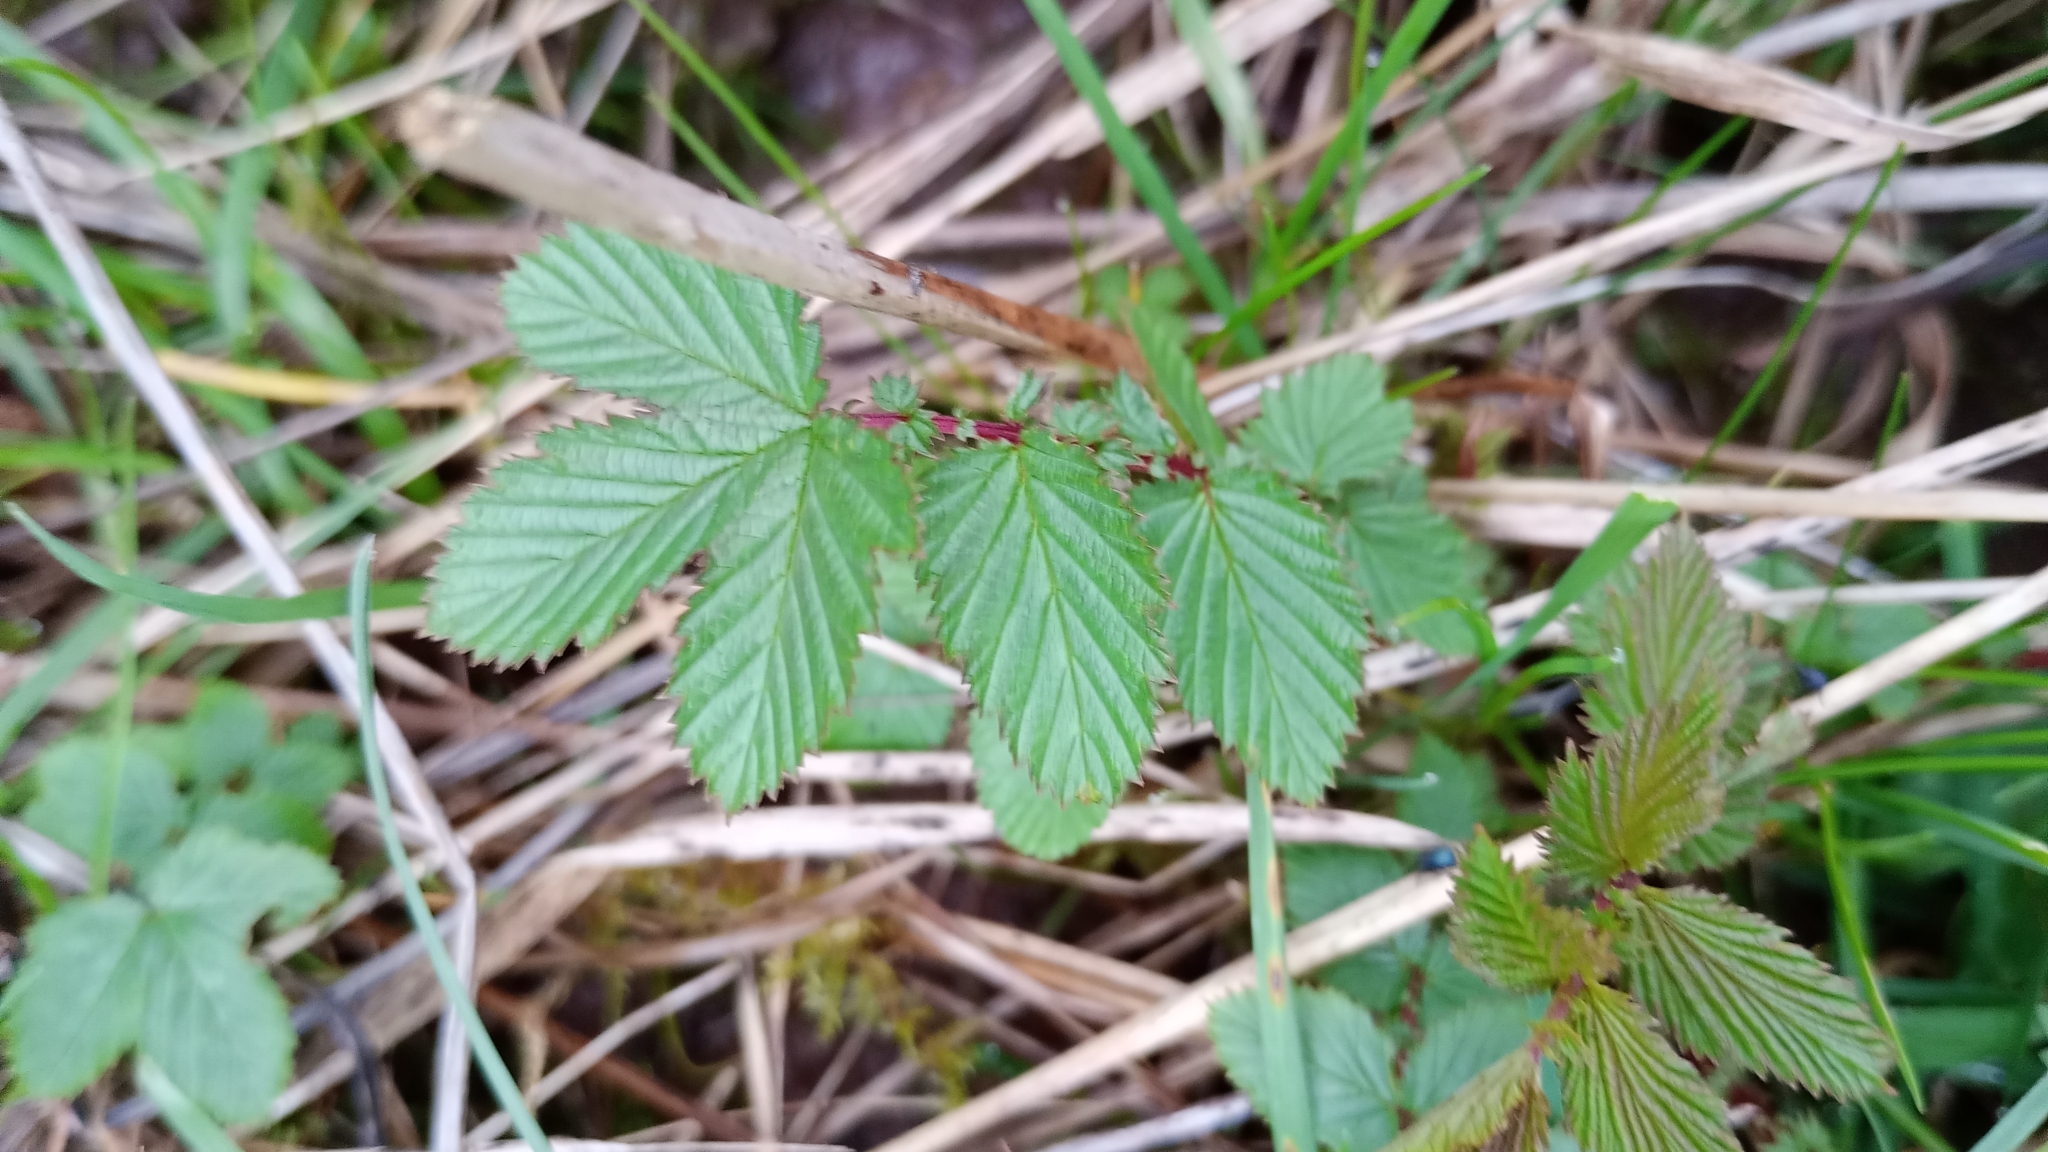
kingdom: Plantae
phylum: Tracheophyta
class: Magnoliopsida
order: Rosales
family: Rosaceae
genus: Filipendula
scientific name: Filipendula ulmaria
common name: Meadowsweet
